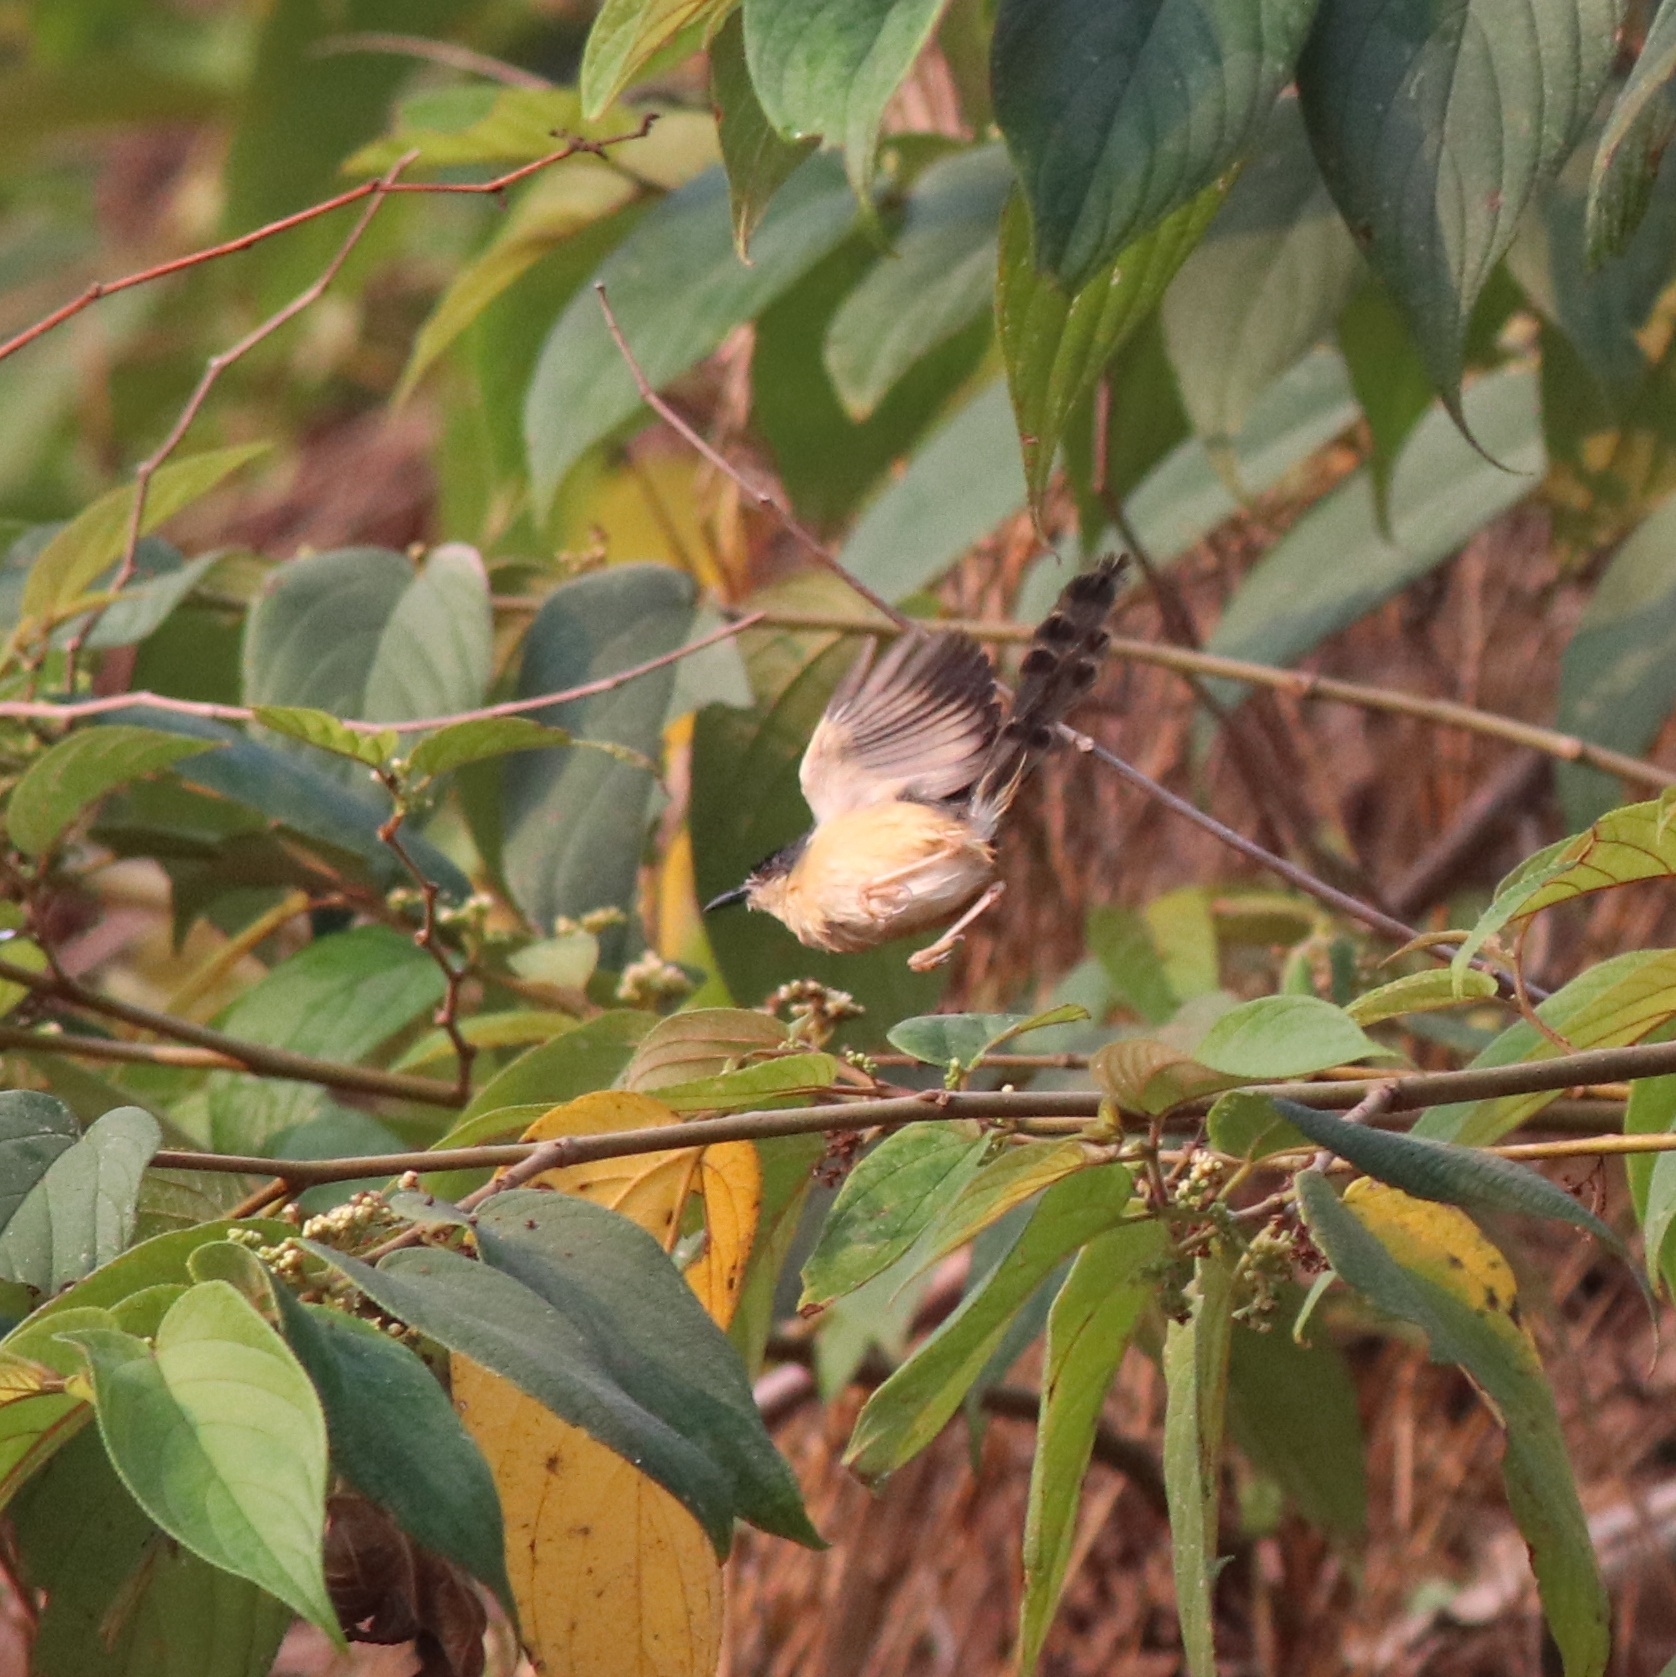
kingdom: Animalia
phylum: Chordata
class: Aves
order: Passeriformes
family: Cisticolidae
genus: Prinia
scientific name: Prinia socialis
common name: Ashy prinia
